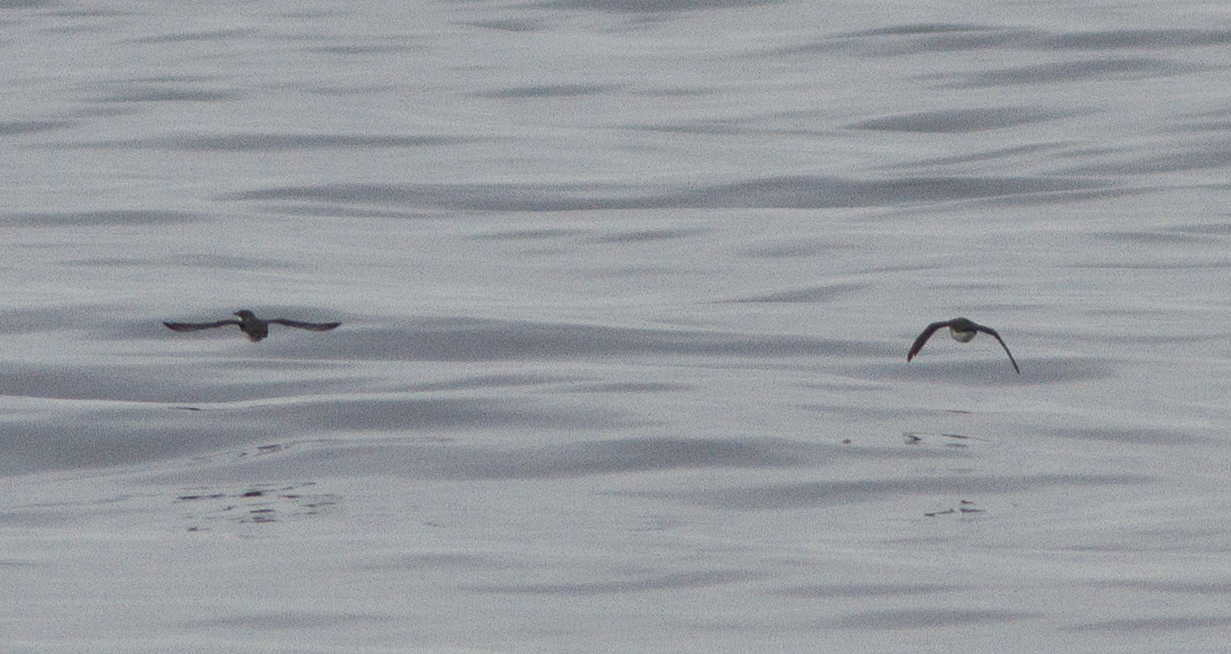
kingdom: Animalia
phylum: Chordata
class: Aves
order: Charadriiformes
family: Alcidae
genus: Synthliboramphus
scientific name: Synthliboramphus scrippsi
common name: Scripps's murrelet
